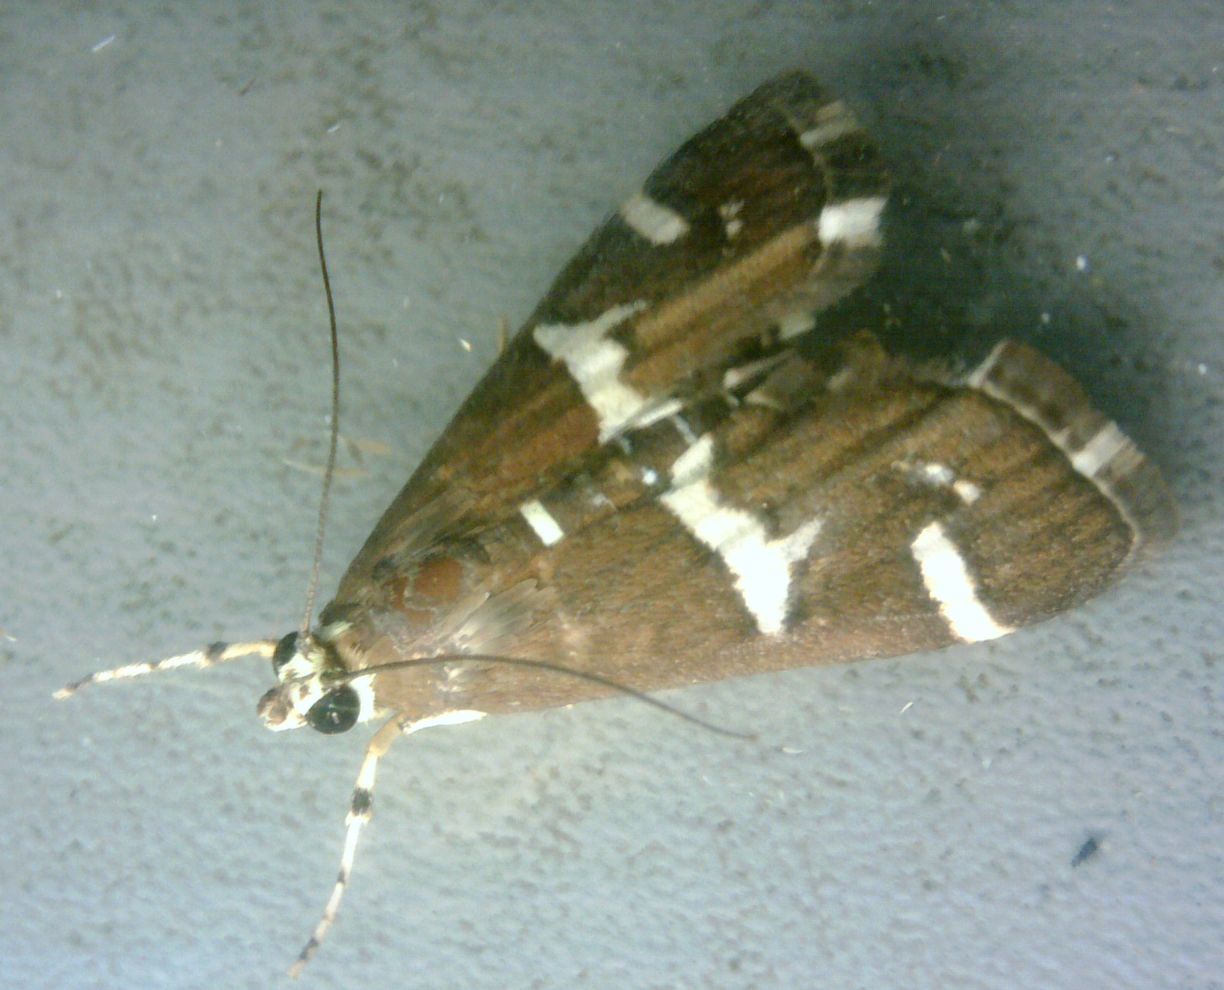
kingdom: Animalia
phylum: Arthropoda
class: Insecta
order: Lepidoptera
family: Crambidae
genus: Spoladea
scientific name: Spoladea recurvalis
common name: Beet webworm moth
